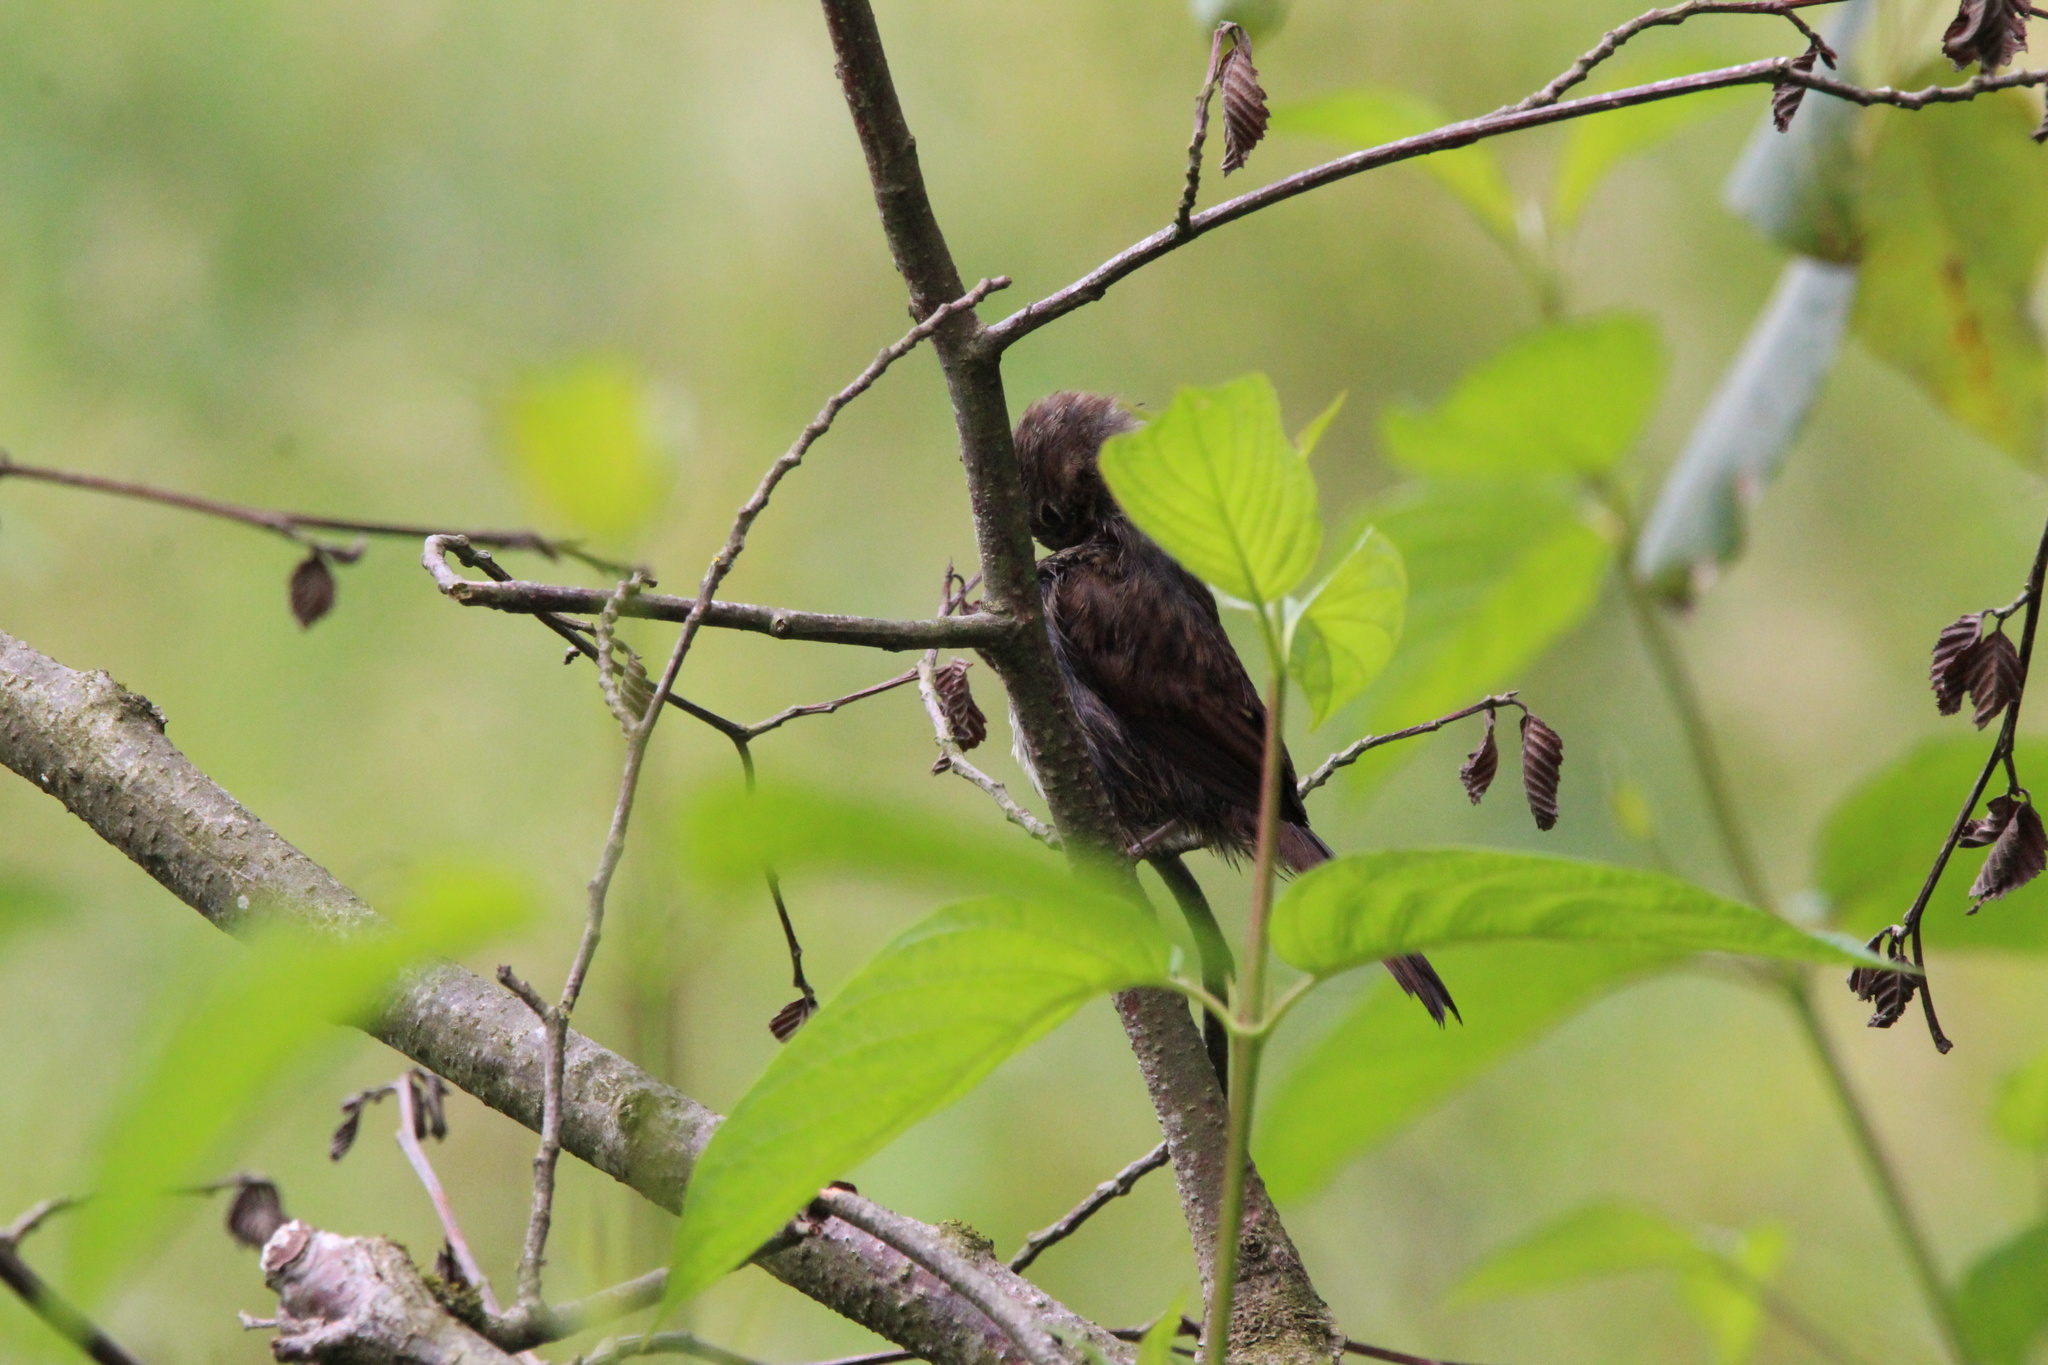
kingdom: Animalia
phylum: Chordata
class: Aves
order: Passeriformes
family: Passerellidae
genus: Melospiza
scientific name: Melospiza melodia
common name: Song sparrow
